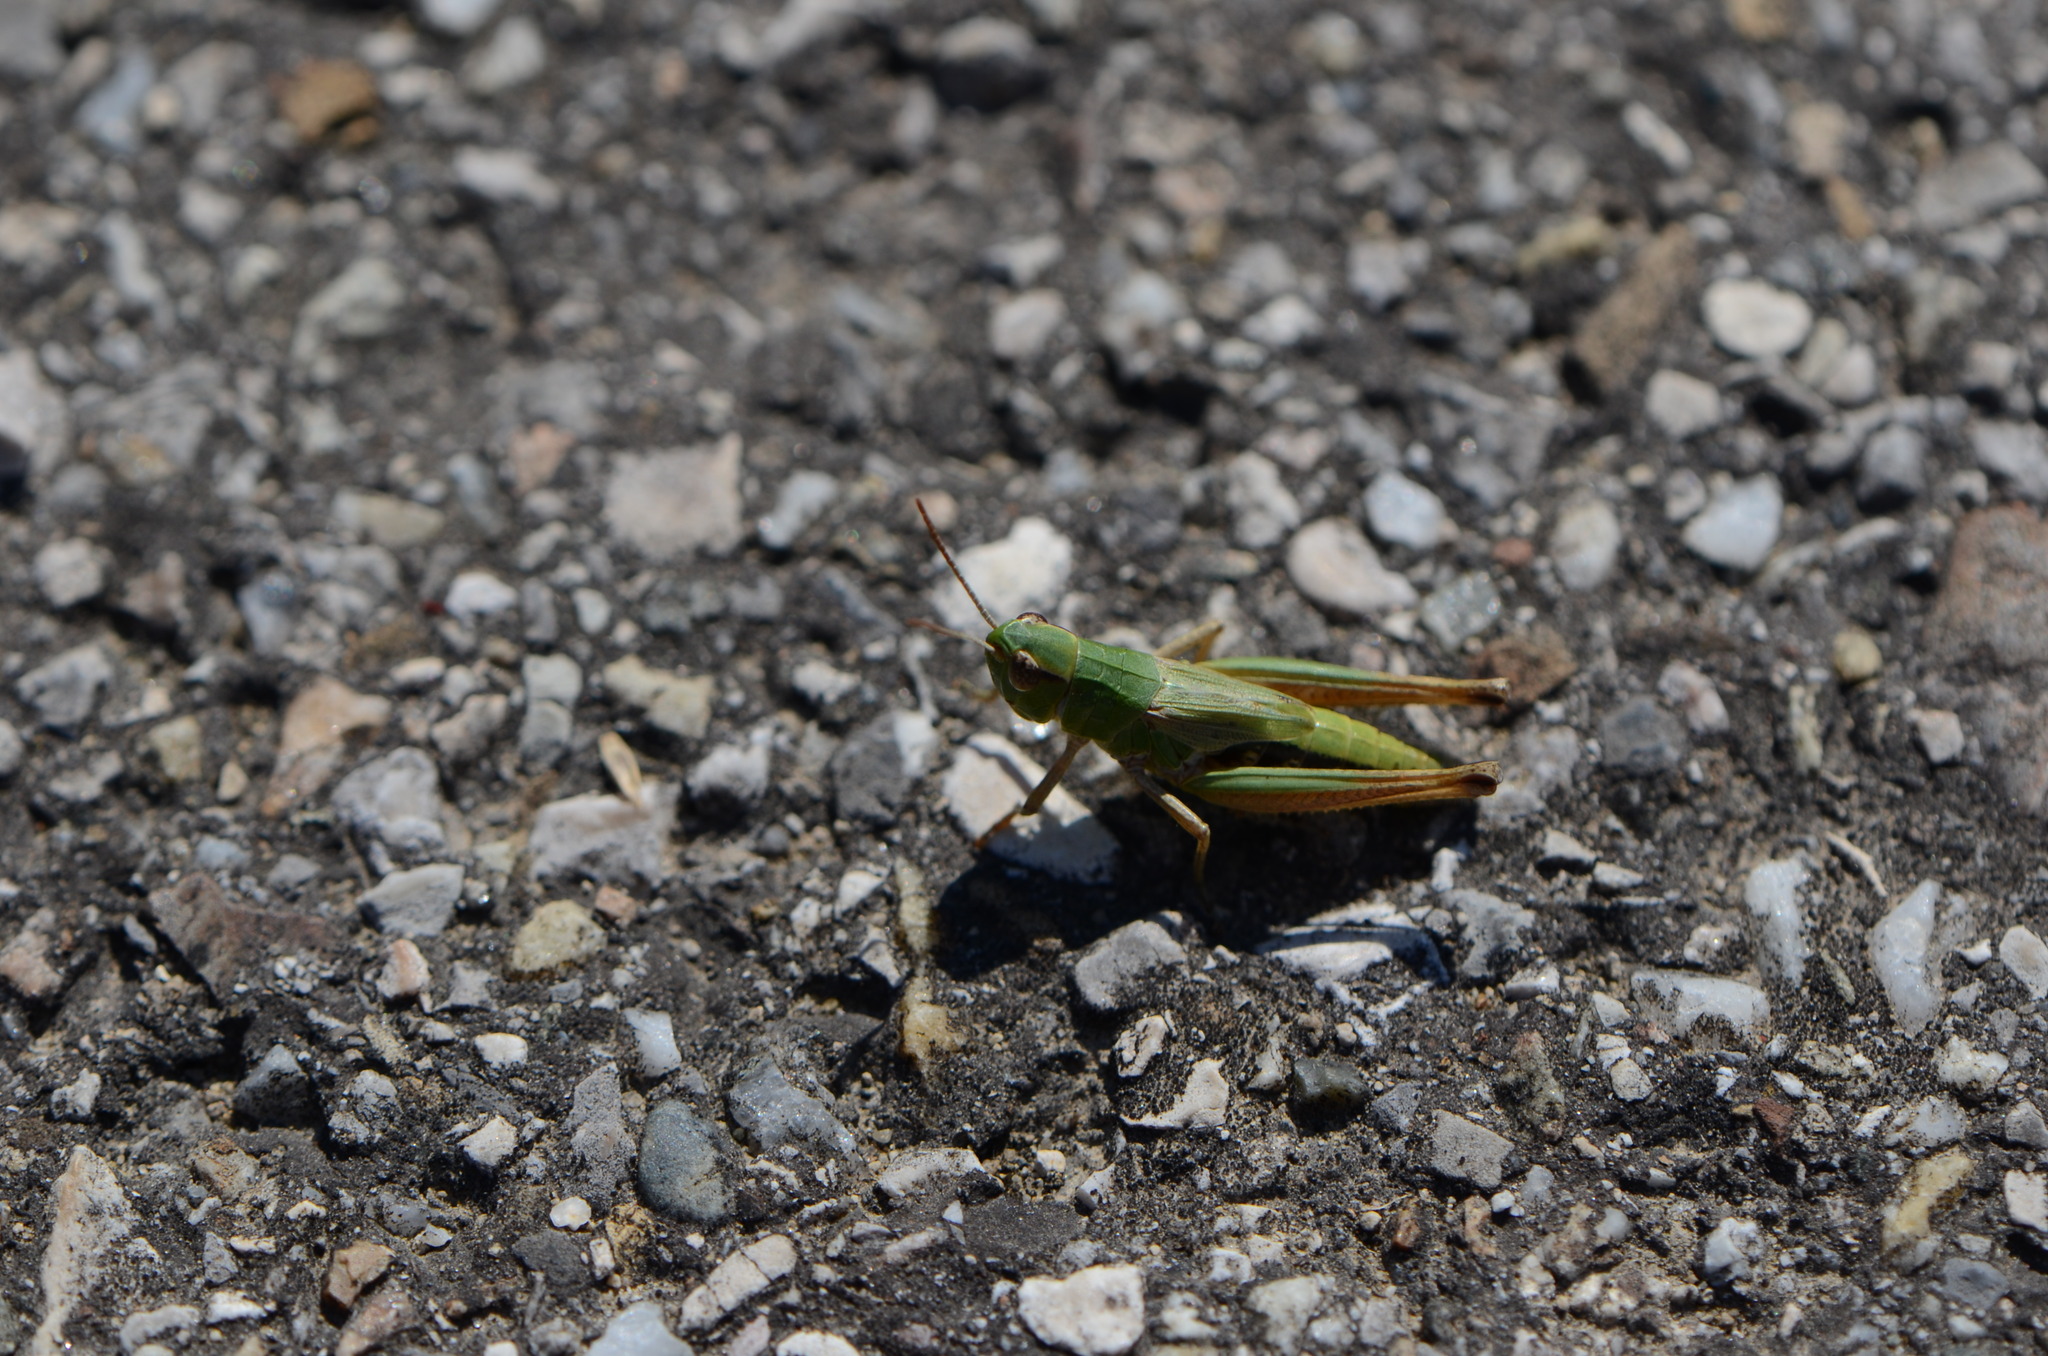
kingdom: Animalia
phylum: Arthropoda
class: Insecta
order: Orthoptera
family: Acrididae
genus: Pseudochorthippus
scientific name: Pseudochorthippus parallelus
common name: Meadow grasshopper
